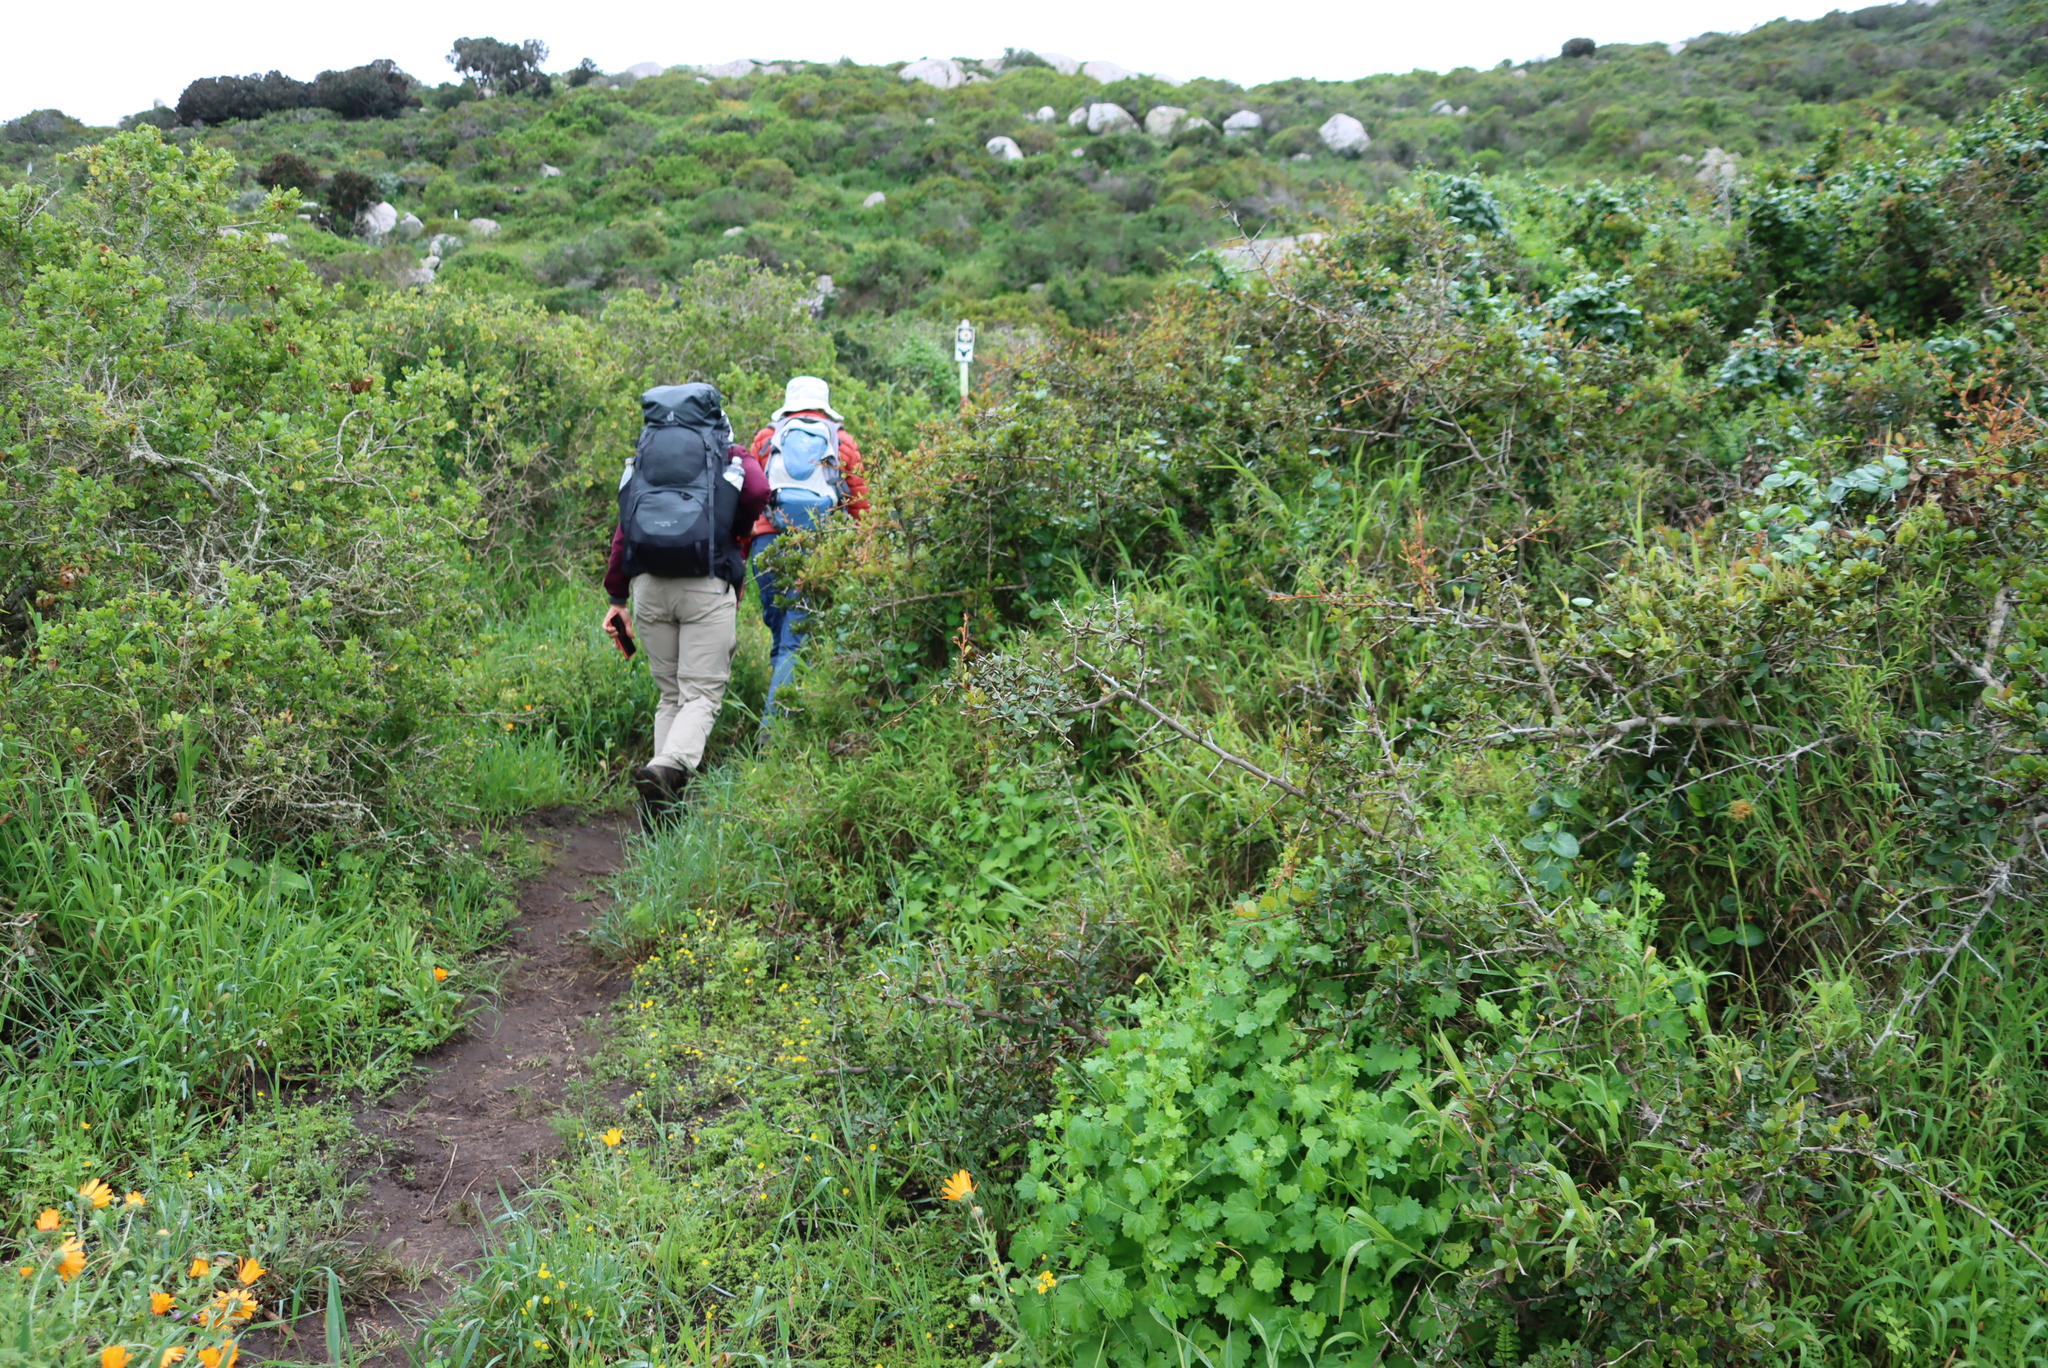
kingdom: Plantae
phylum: Tracheophyta
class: Magnoliopsida
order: Sapindales
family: Anacardiaceae
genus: Searsia
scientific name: Searsia pterota
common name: Winged currant
